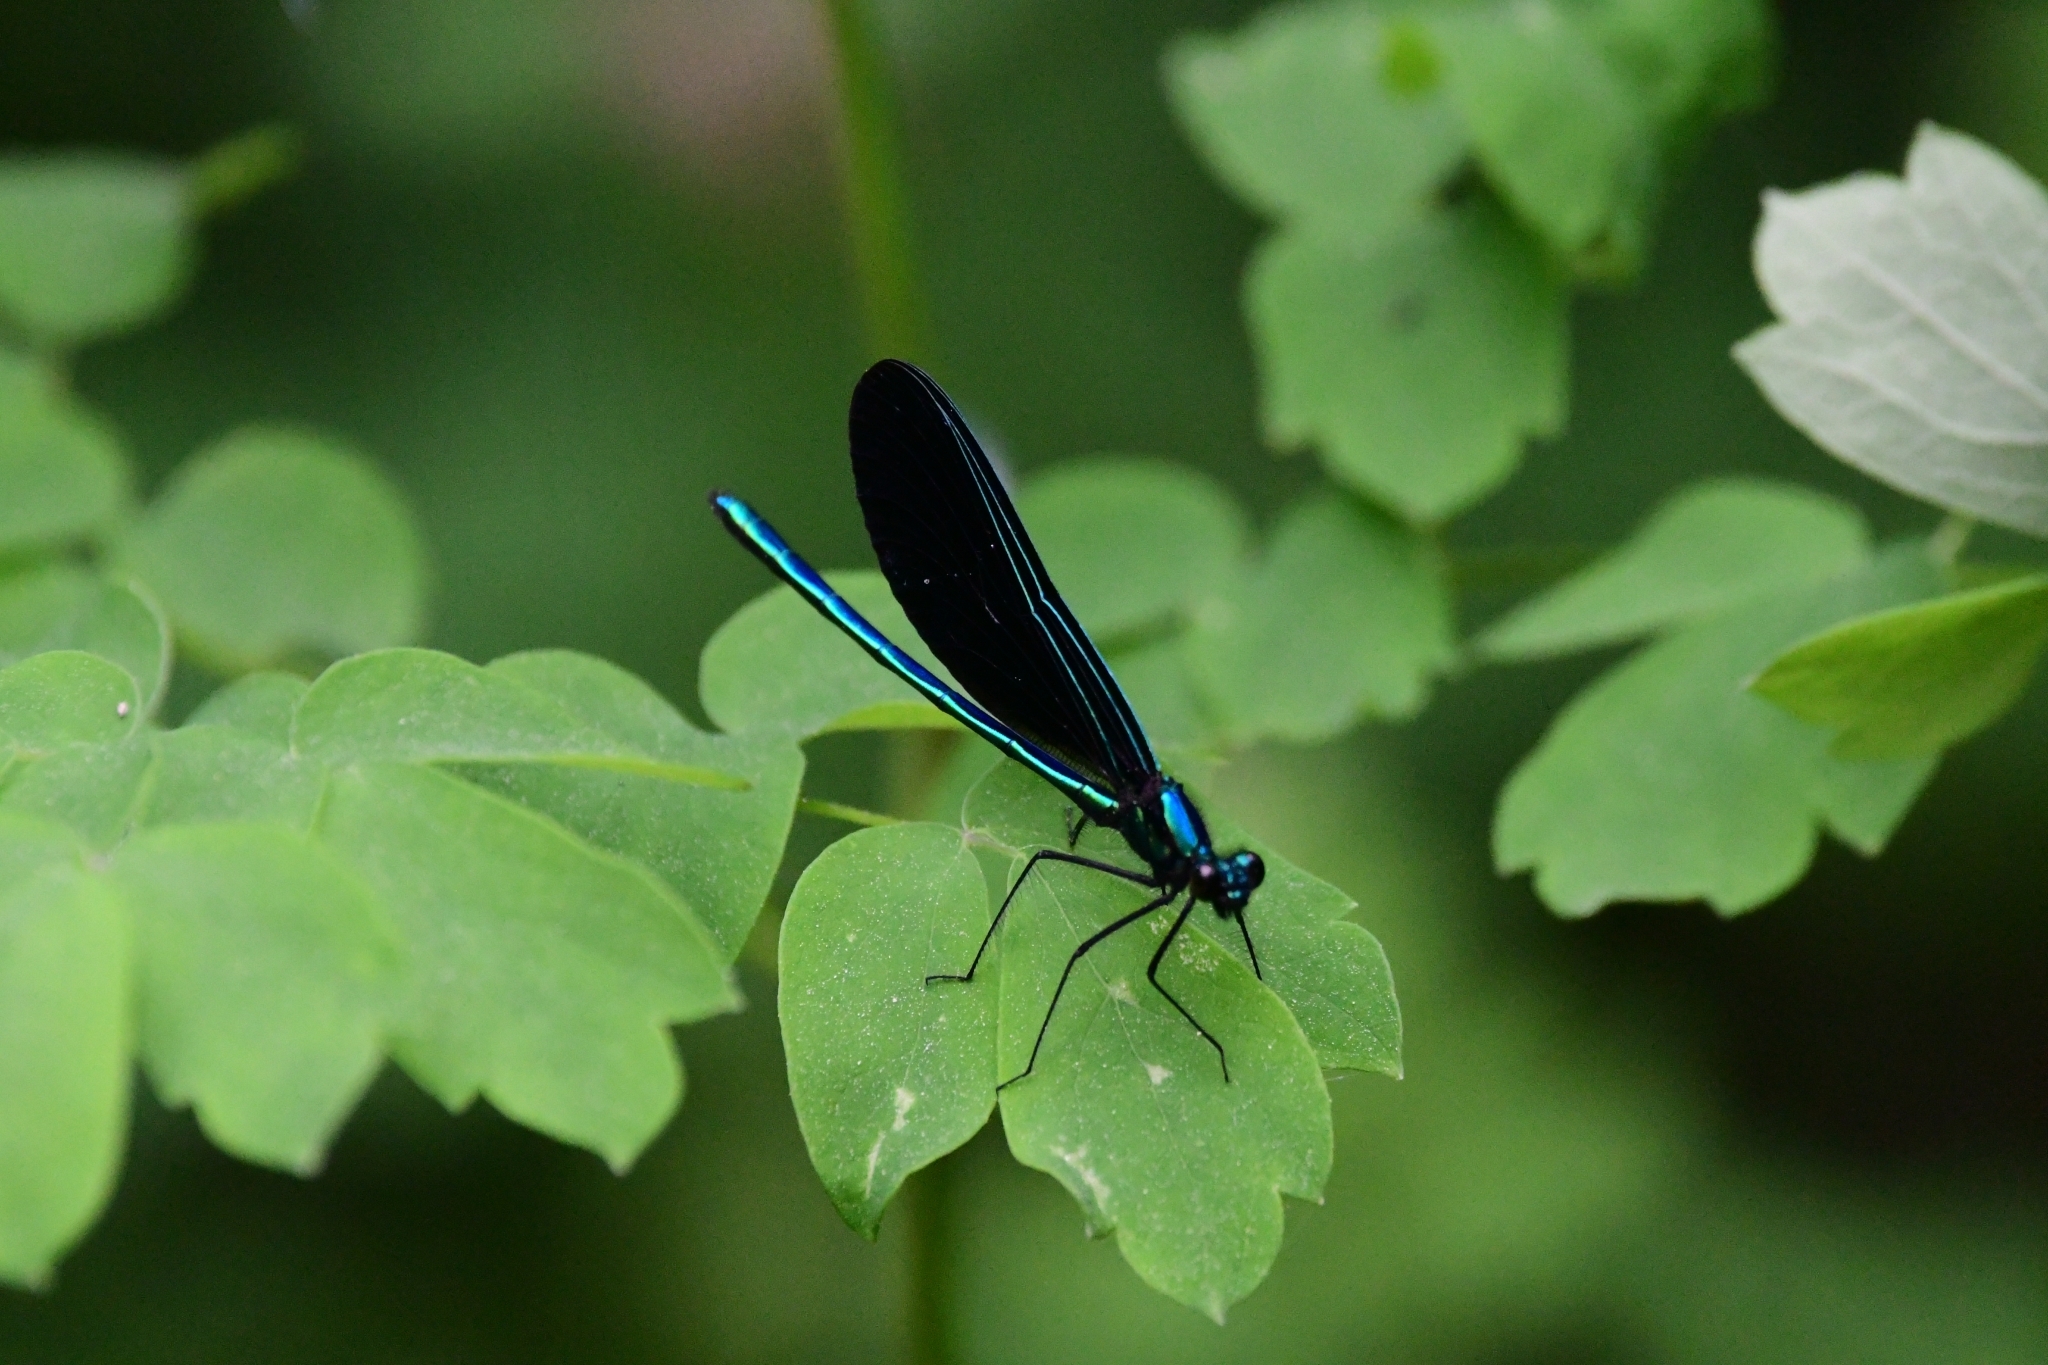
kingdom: Animalia
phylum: Arthropoda
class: Insecta
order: Odonata
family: Calopterygidae
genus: Calopteryx
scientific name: Calopteryx maculata
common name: Ebony jewelwing
